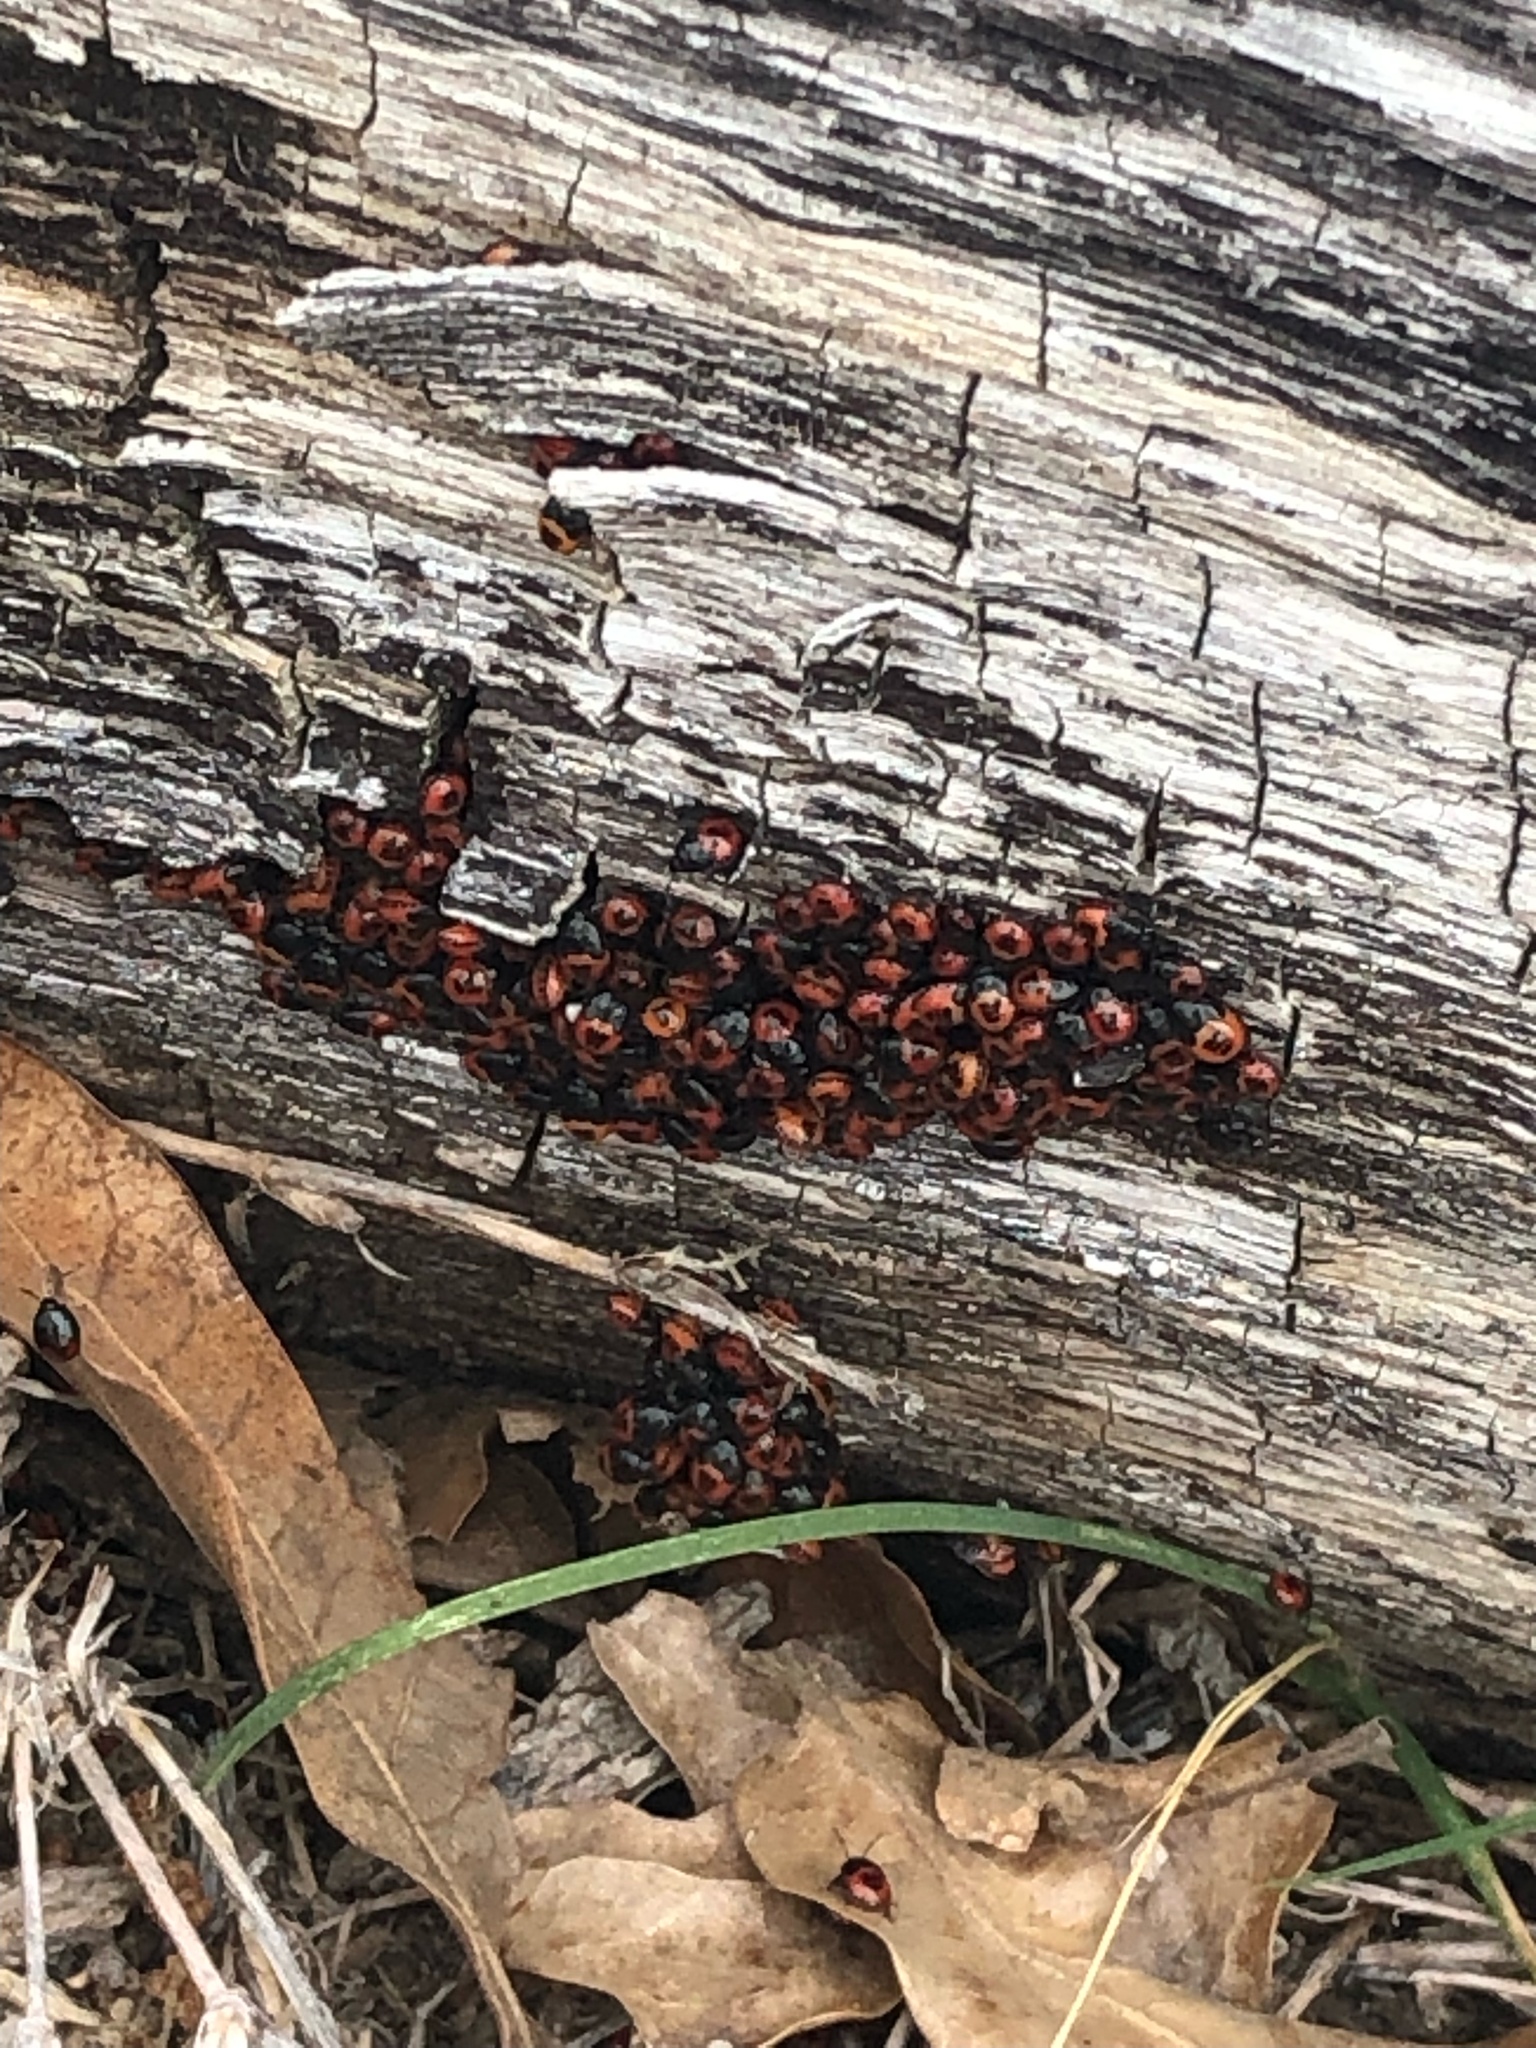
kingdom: Animalia
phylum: Arthropoda
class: Insecta
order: Hemiptera
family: Cydnidae
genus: Sehirus
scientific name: Sehirus cinctus
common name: White-margined burrower bug
